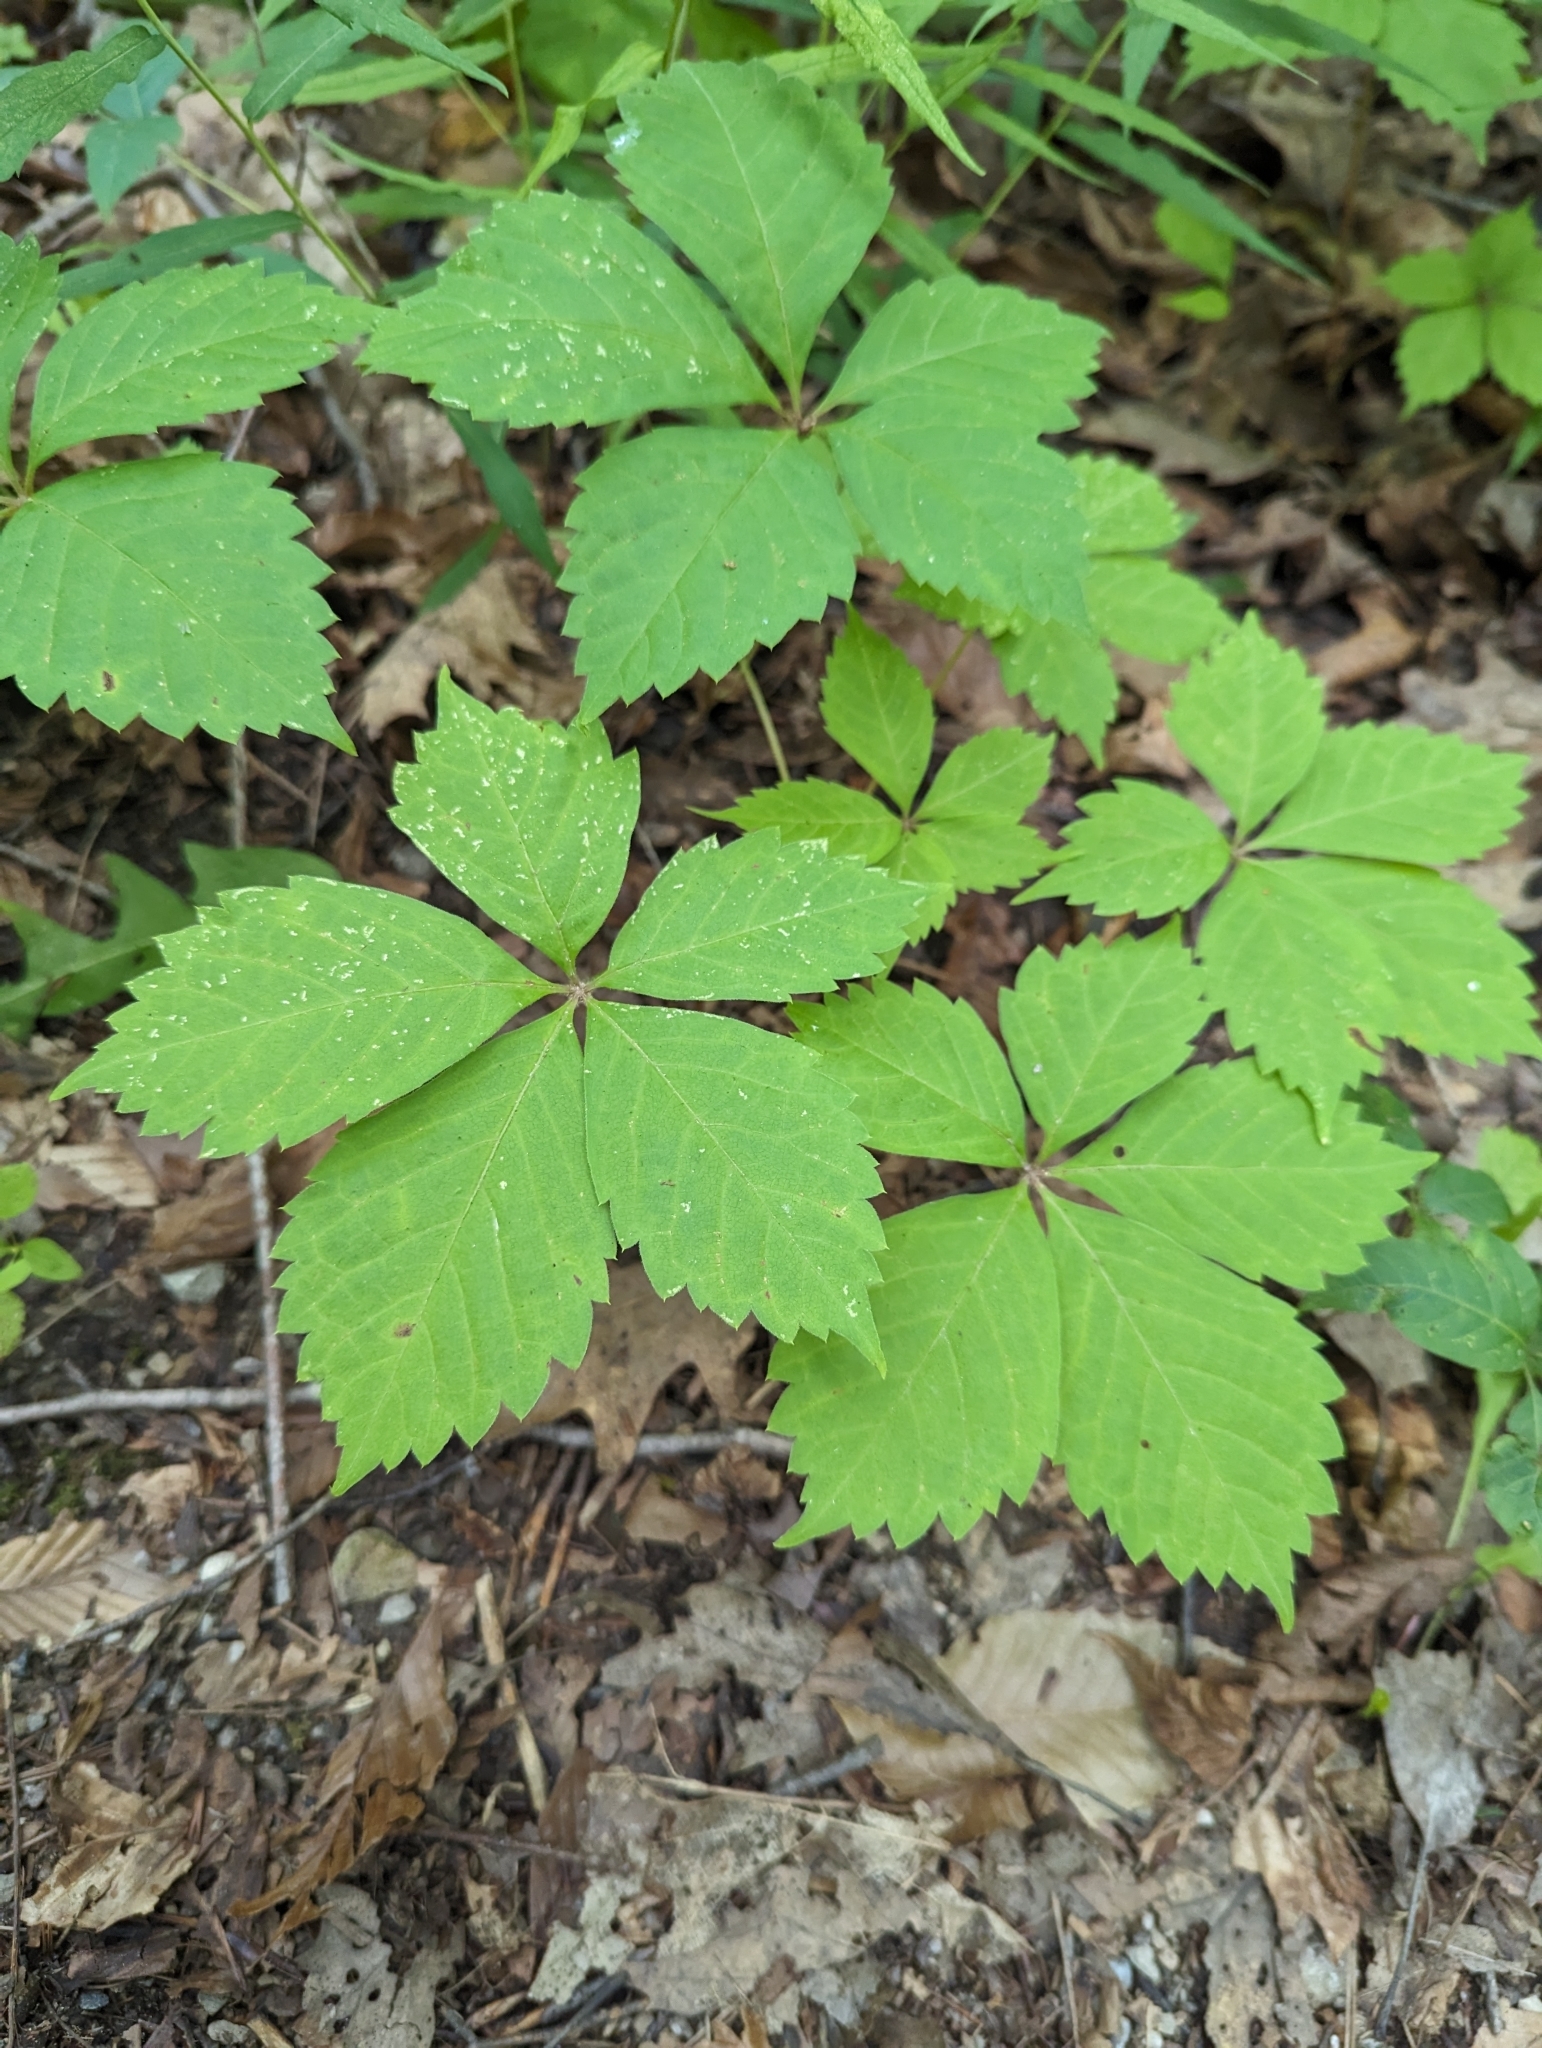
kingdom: Plantae
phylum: Tracheophyta
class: Magnoliopsida
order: Vitales
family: Vitaceae
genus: Parthenocissus
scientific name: Parthenocissus quinquefolia
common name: Virginia-creeper
